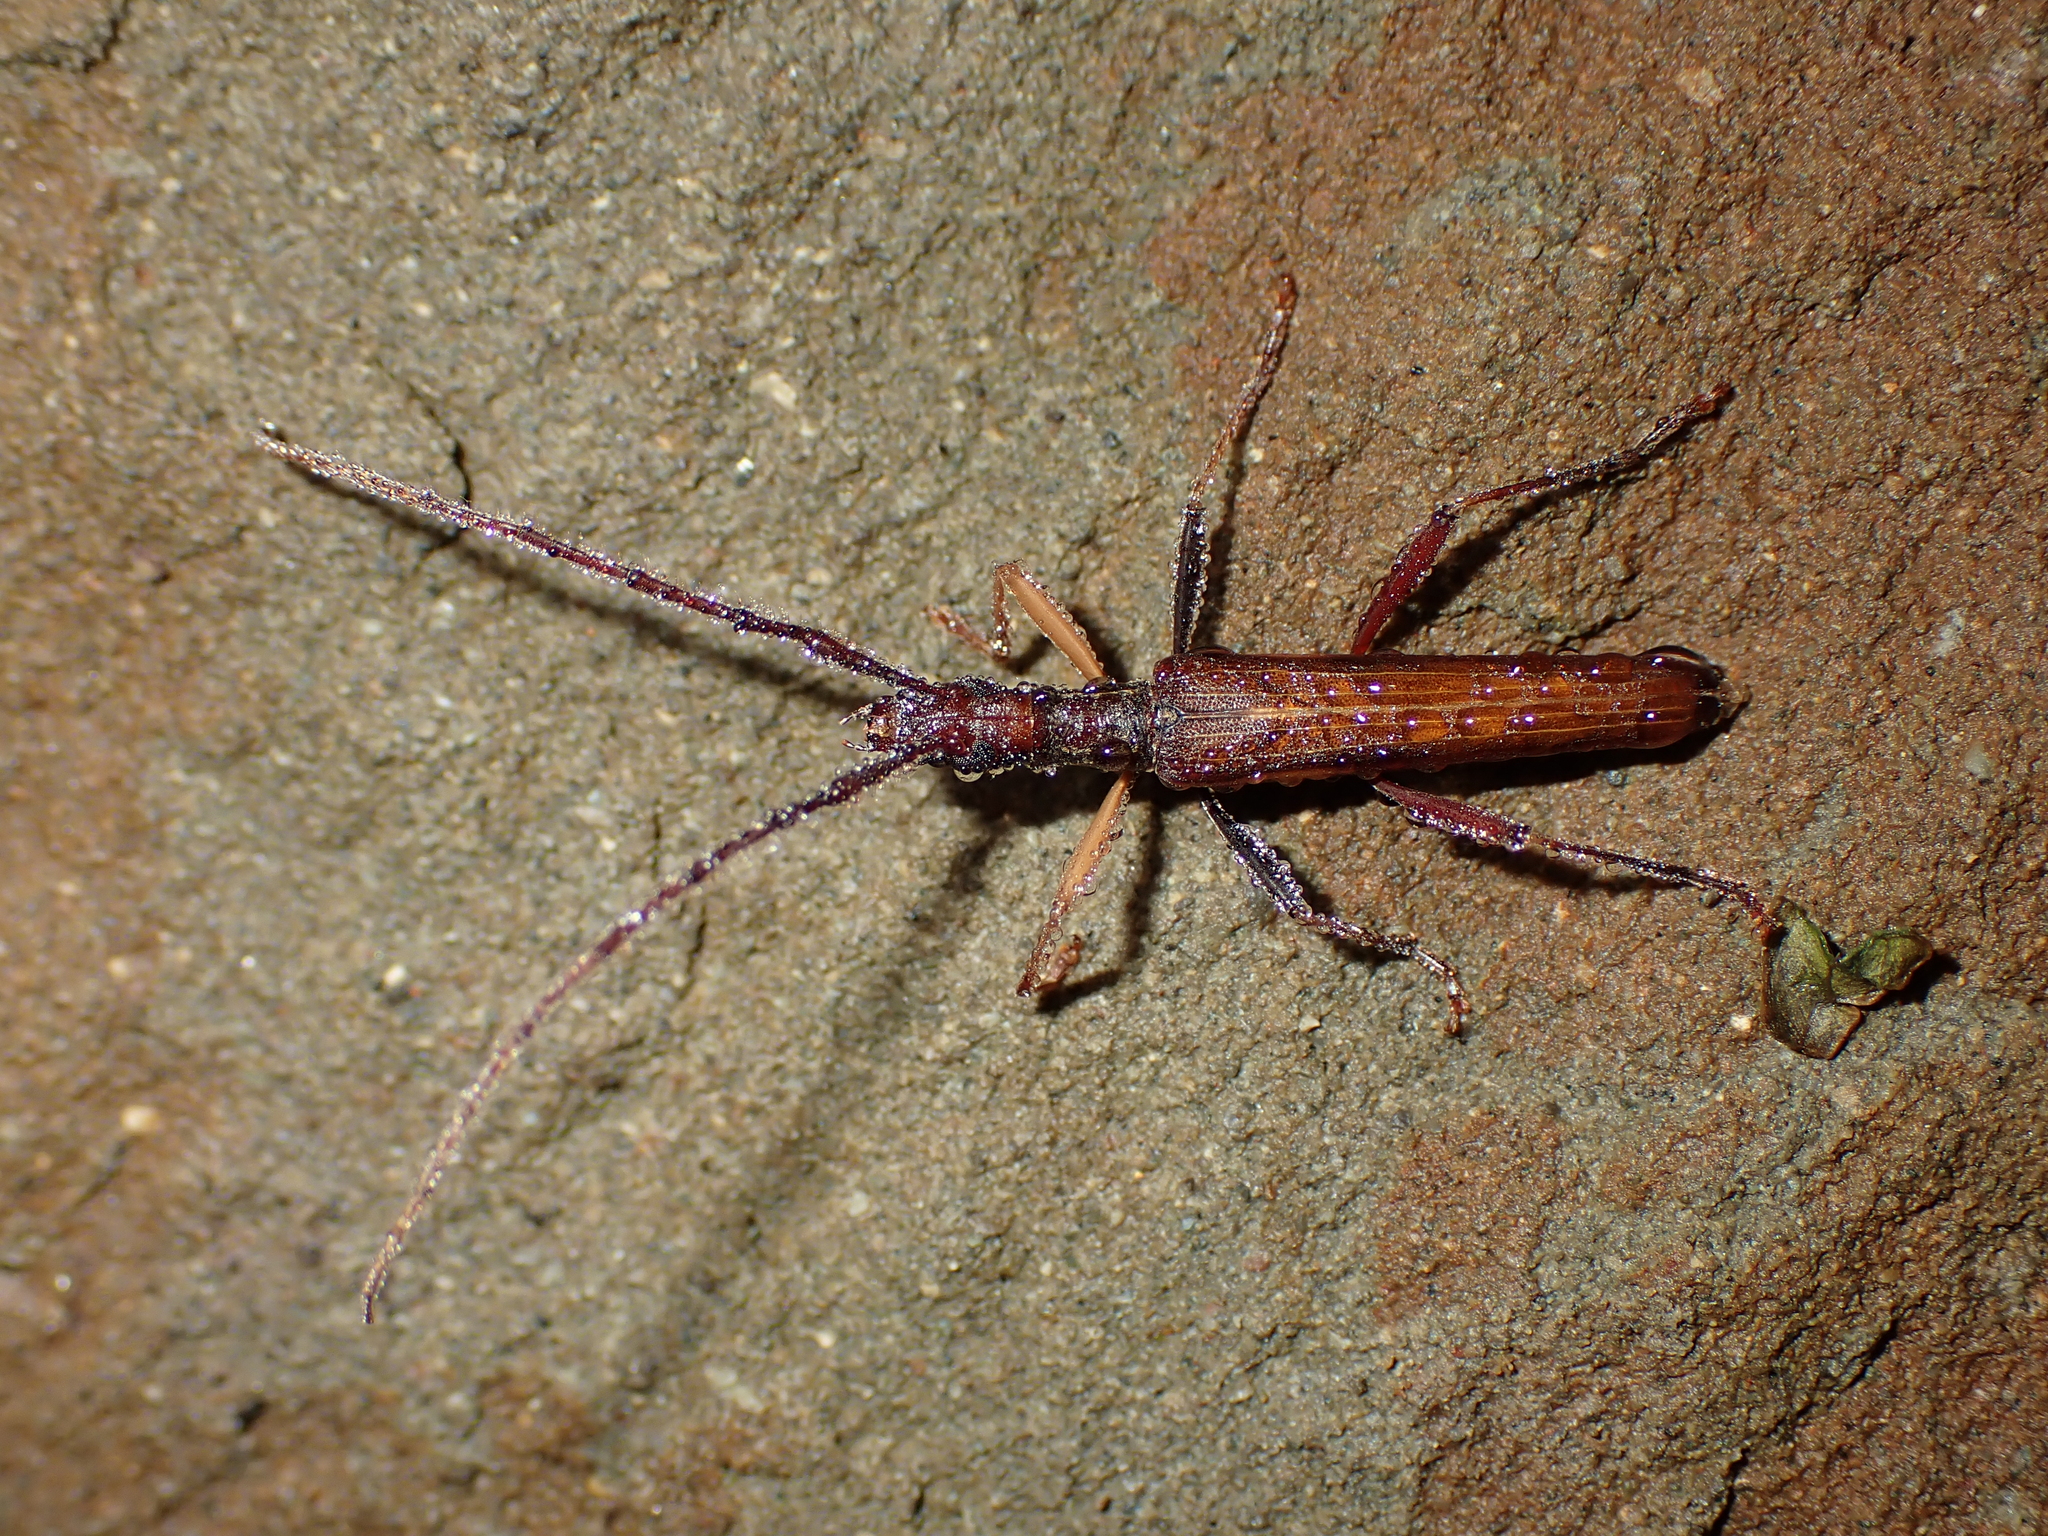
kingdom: Animalia
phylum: Arthropoda
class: Insecta
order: Coleoptera
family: Cerambycidae
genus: Stenopotes
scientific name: Stenopotes pallidus
